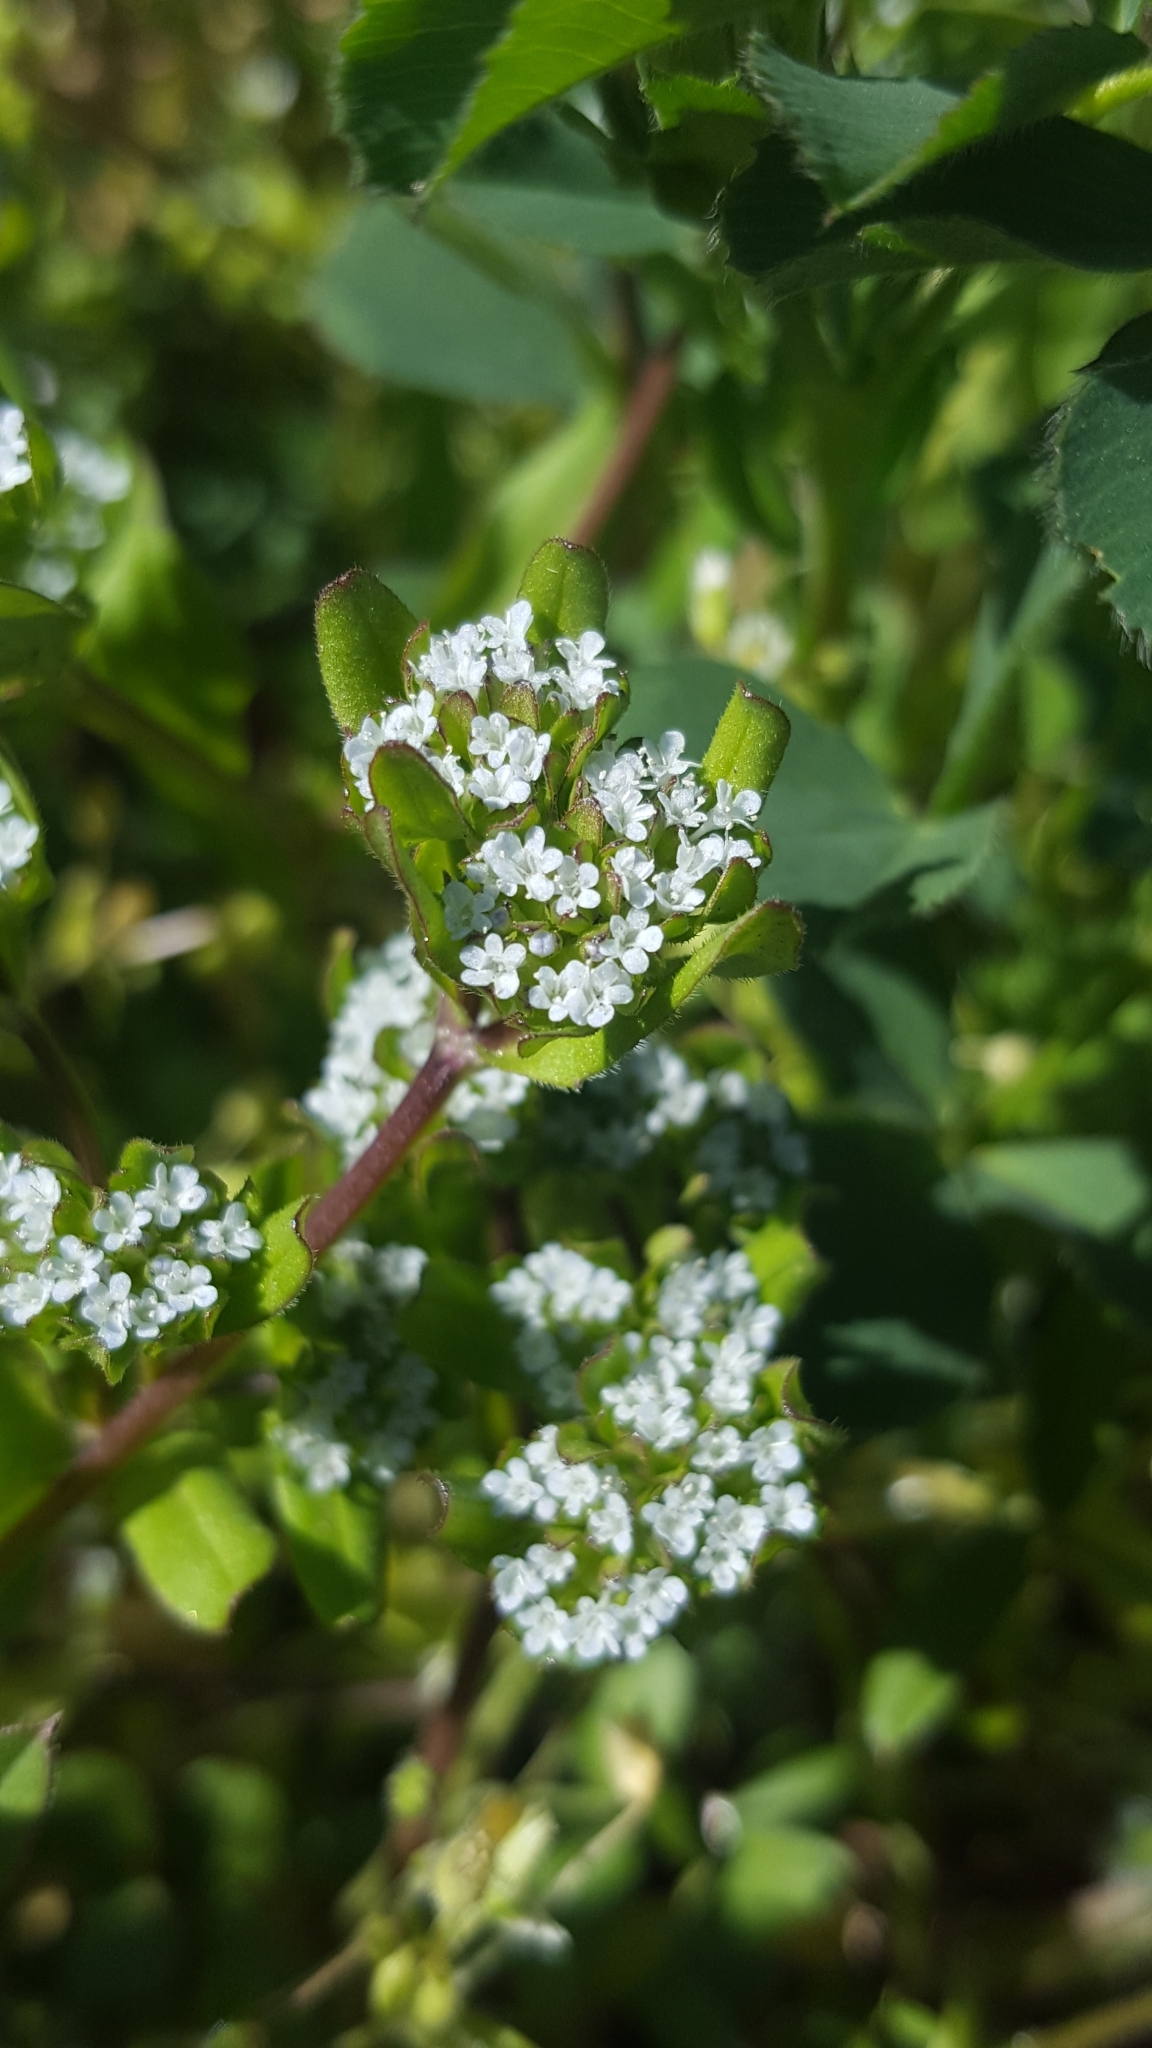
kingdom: Plantae
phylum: Tracheophyta
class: Magnoliopsida
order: Dipsacales
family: Caprifoliaceae
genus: Valerianella
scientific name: Valerianella
